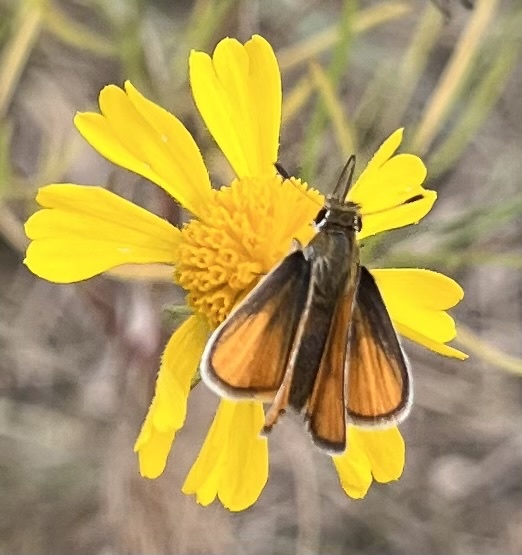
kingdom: Animalia
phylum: Arthropoda
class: Insecta
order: Lepidoptera
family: Hesperiidae
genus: Copaeodes
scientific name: Copaeodes minima
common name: Southern skipperling
